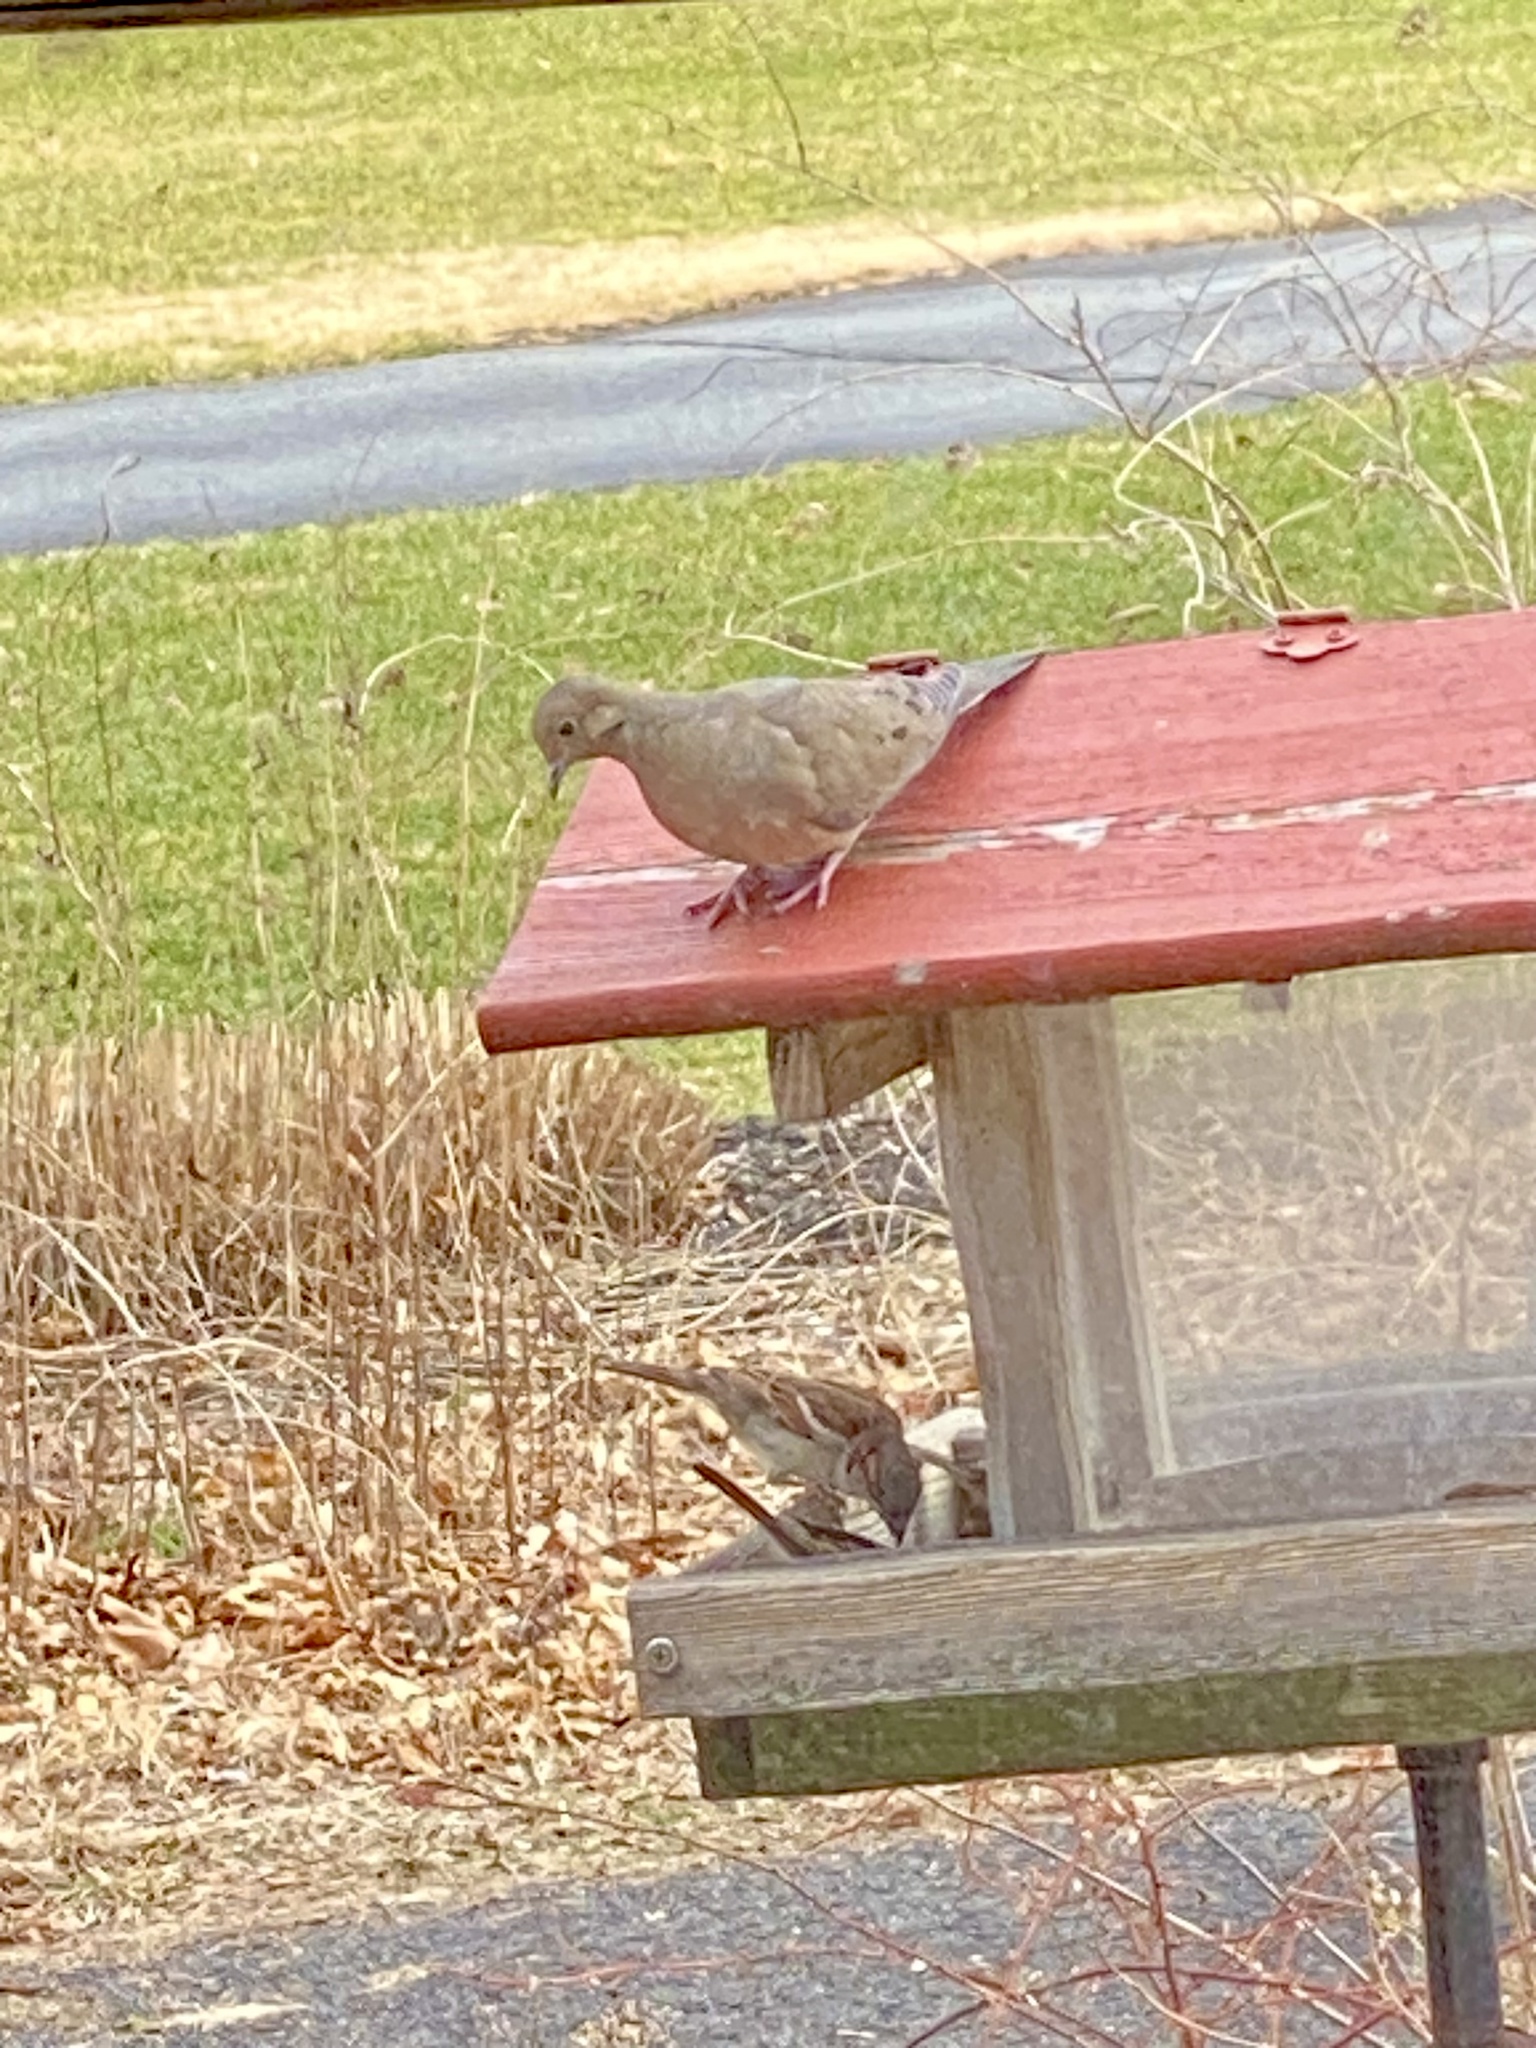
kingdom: Animalia
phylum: Chordata
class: Aves
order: Columbiformes
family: Columbidae
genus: Zenaida
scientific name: Zenaida macroura
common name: Mourning dove
